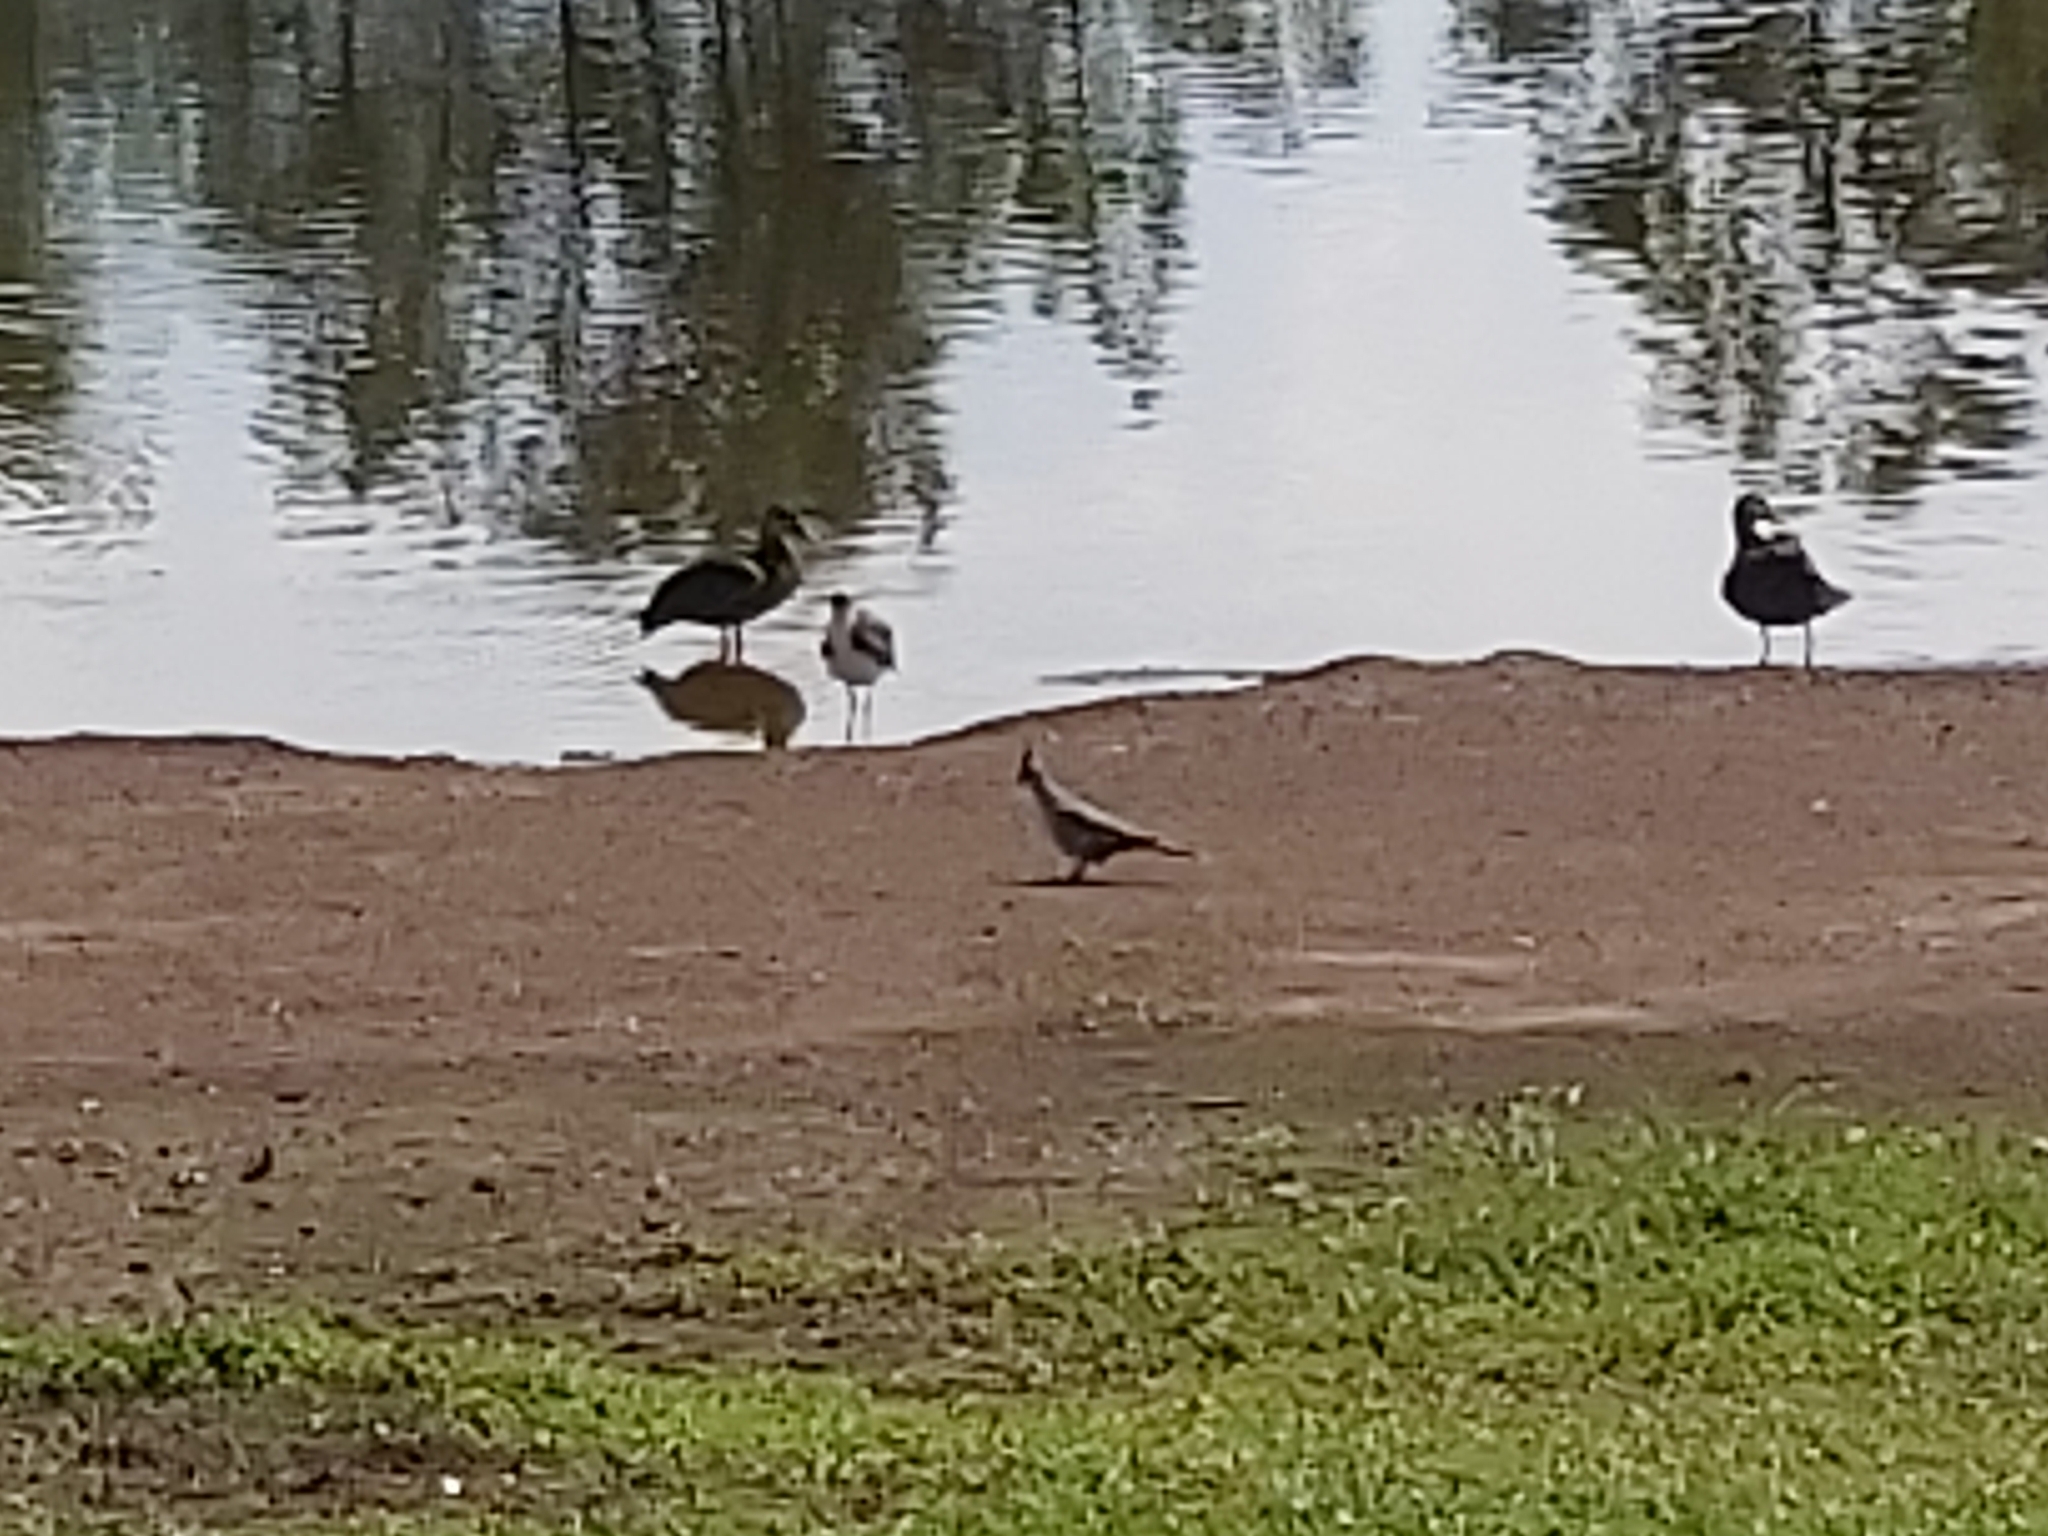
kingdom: Animalia
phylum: Chordata
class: Aves
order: Columbiformes
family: Columbidae
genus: Ocyphaps
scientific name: Ocyphaps lophotes
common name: Crested pigeon
